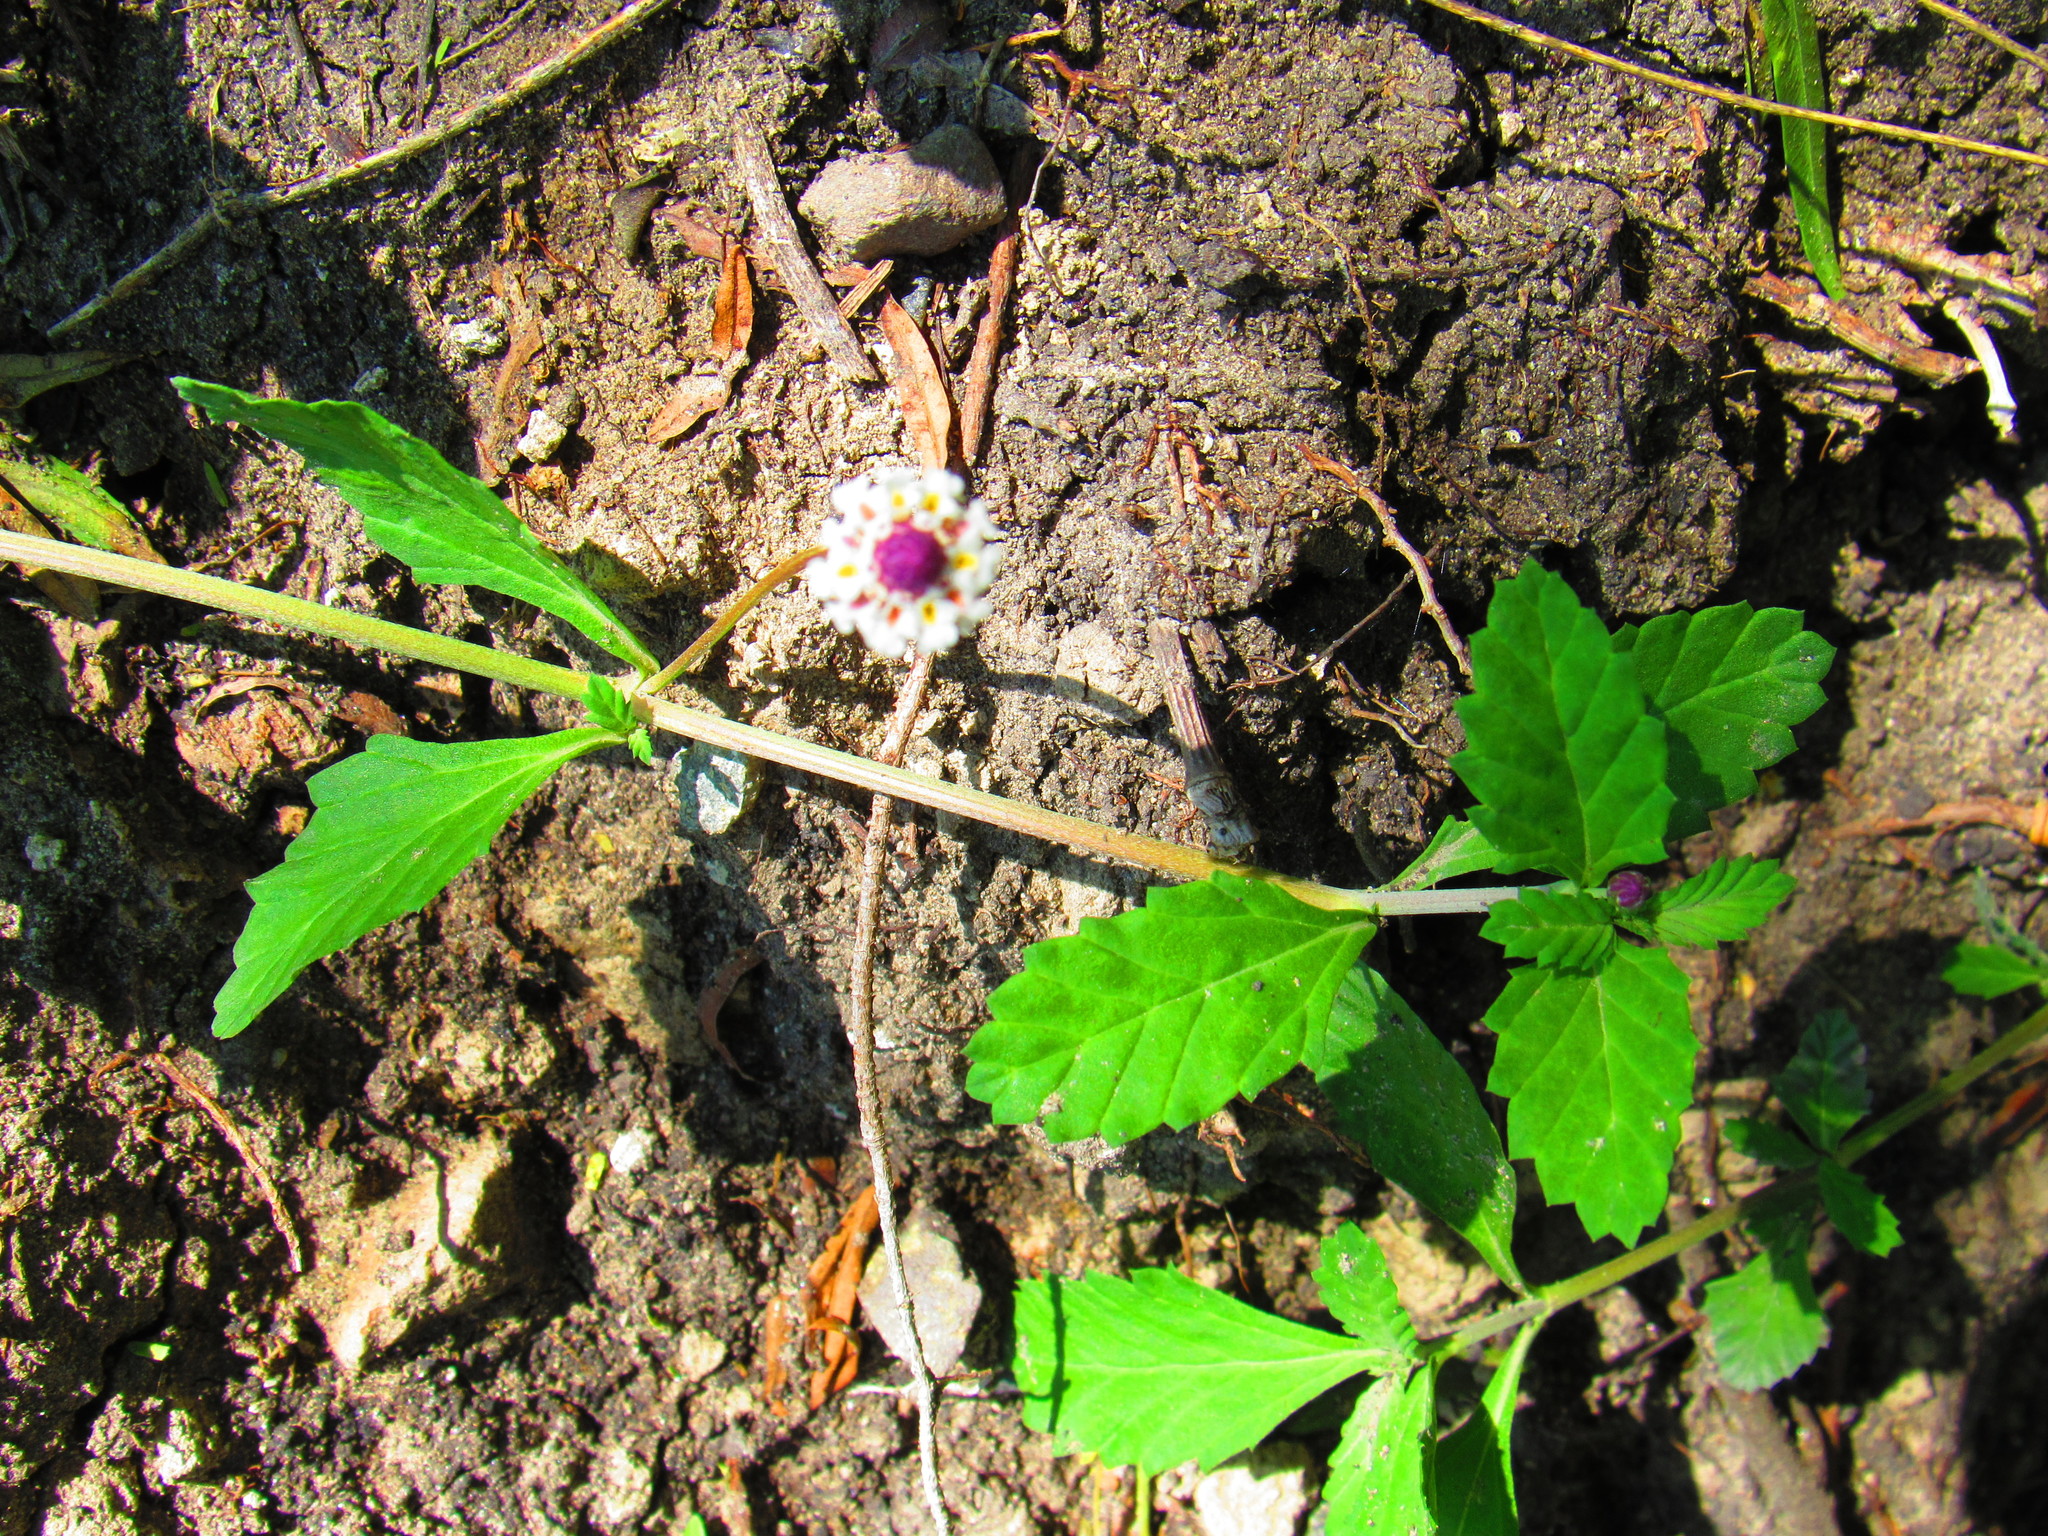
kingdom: Plantae
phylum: Tracheophyta
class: Magnoliopsida
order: Lamiales
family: Verbenaceae
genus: Phyla
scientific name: Phyla nodiflora
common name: Frogfruit
